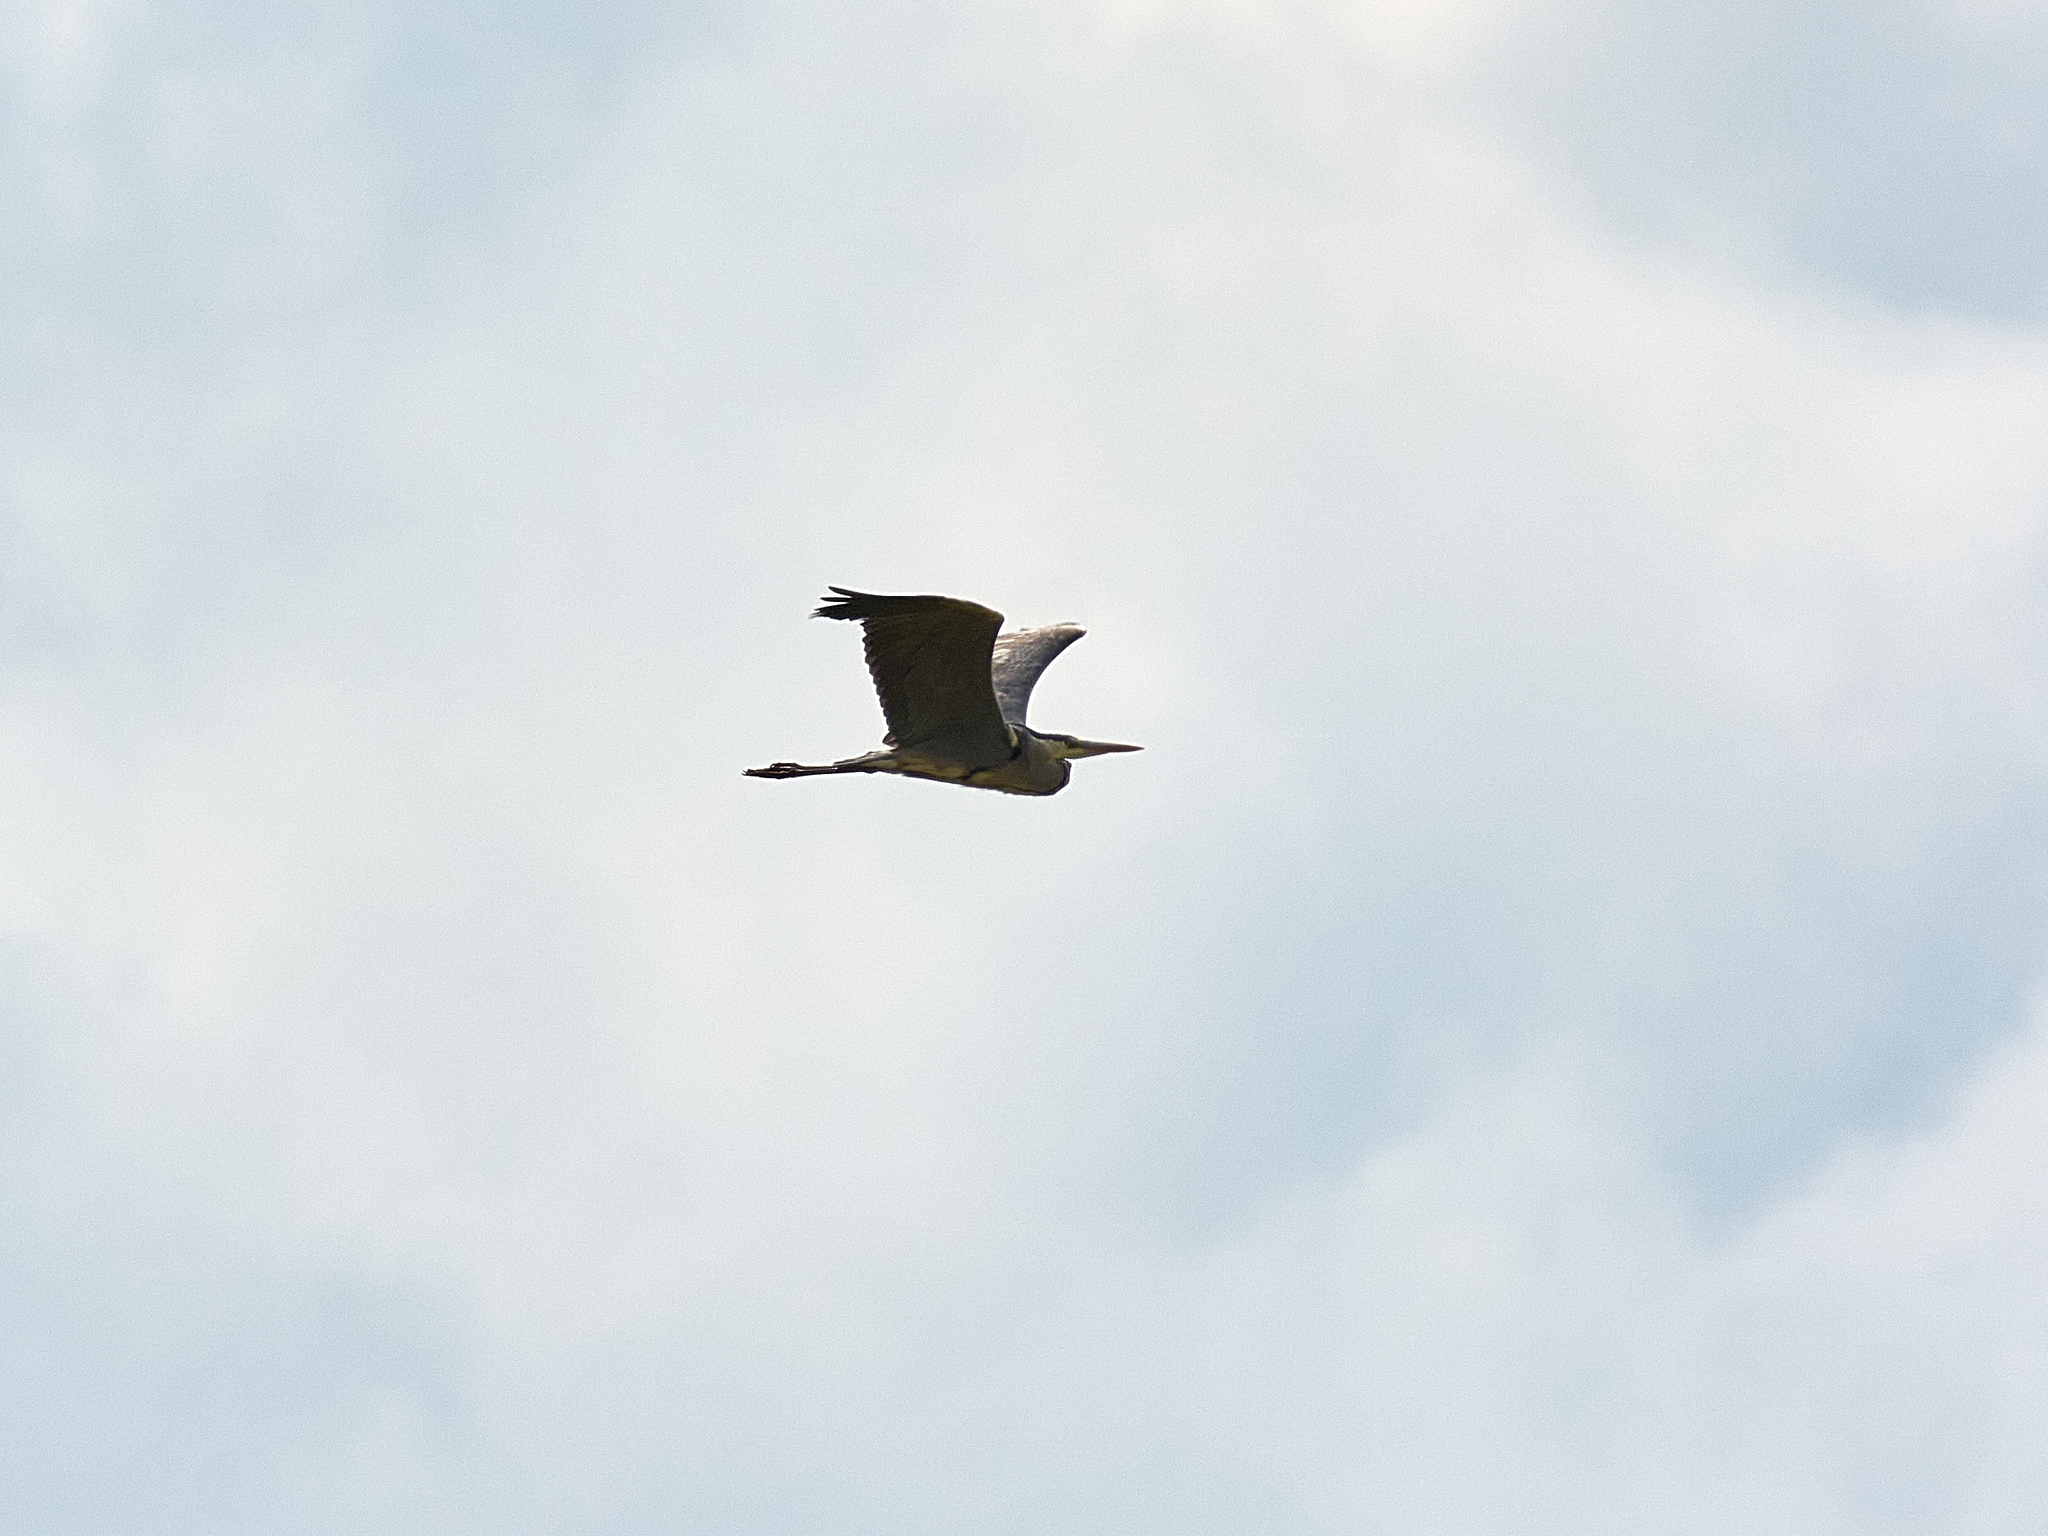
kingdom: Animalia
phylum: Chordata
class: Aves
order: Pelecaniformes
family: Ardeidae
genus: Ardea
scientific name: Ardea cinerea
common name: Grey heron
